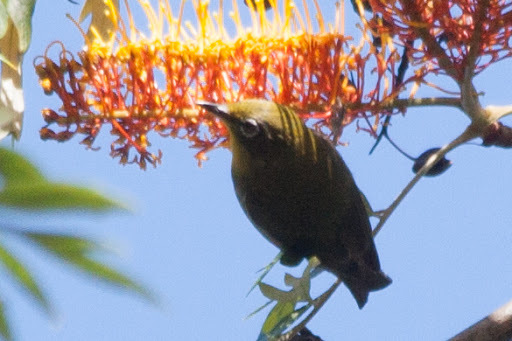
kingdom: Animalia
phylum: Chordata
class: Aves
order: Passeriformes
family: Zosteropidae
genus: Zosterops
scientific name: Zosterops japonicus
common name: Japanese white-eye
